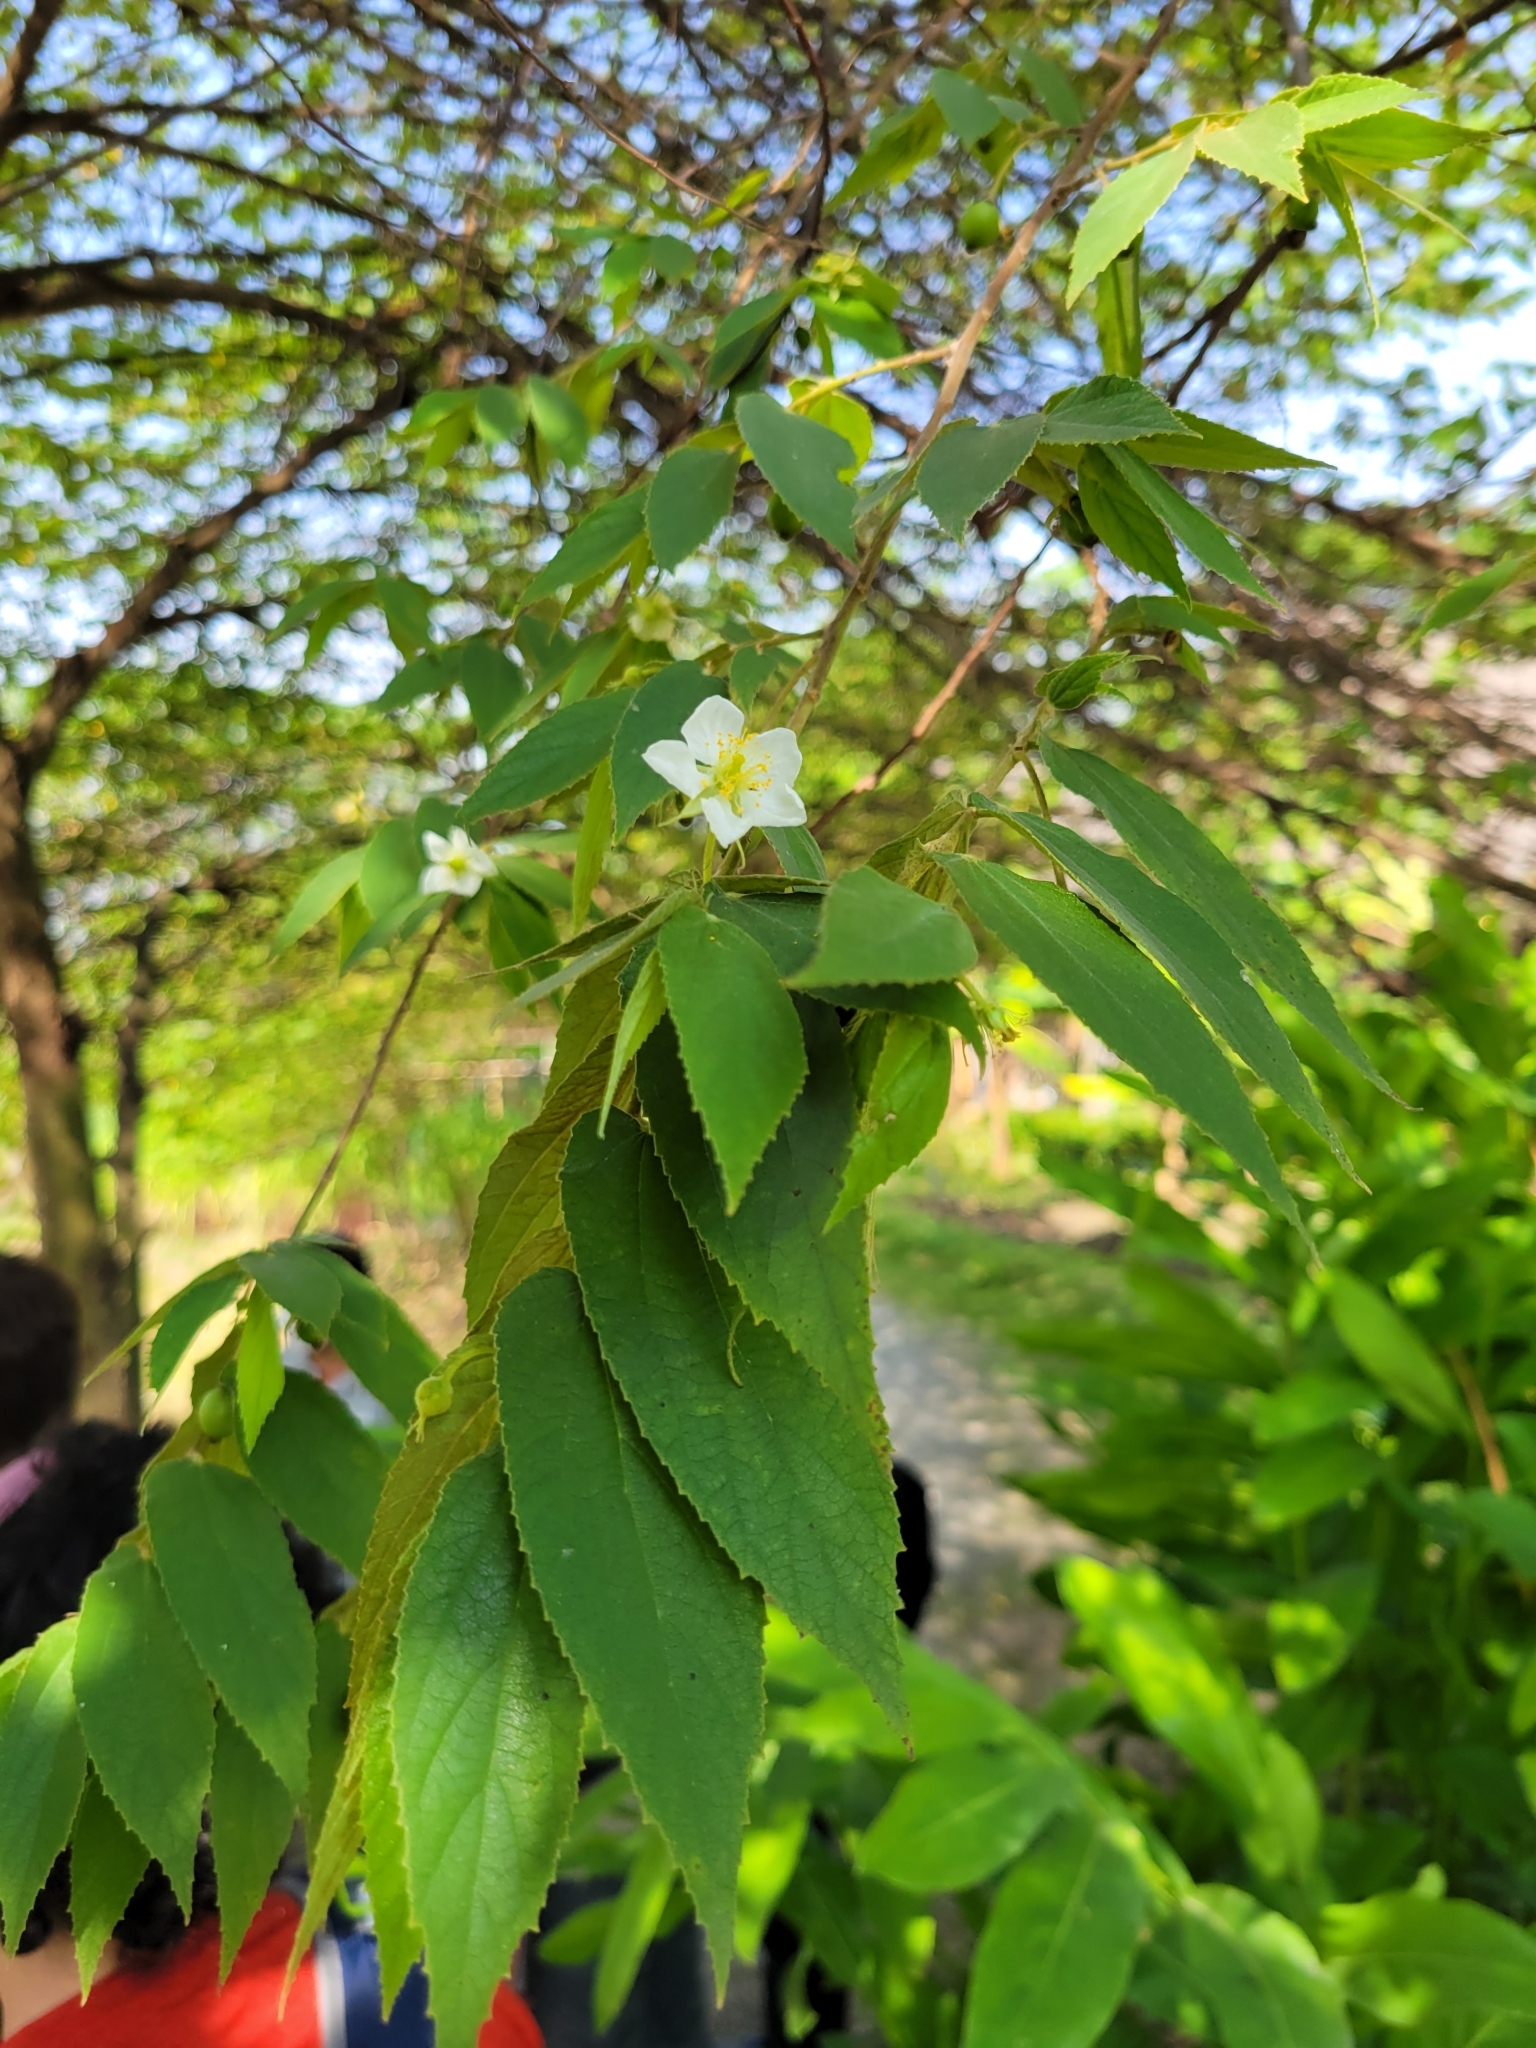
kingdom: Plantae
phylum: Tracheophyta
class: Magnoliopsida
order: Malvales
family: Muntingiaceae
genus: Muntingia
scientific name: Muntingia calabura
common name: Strawberrytree
